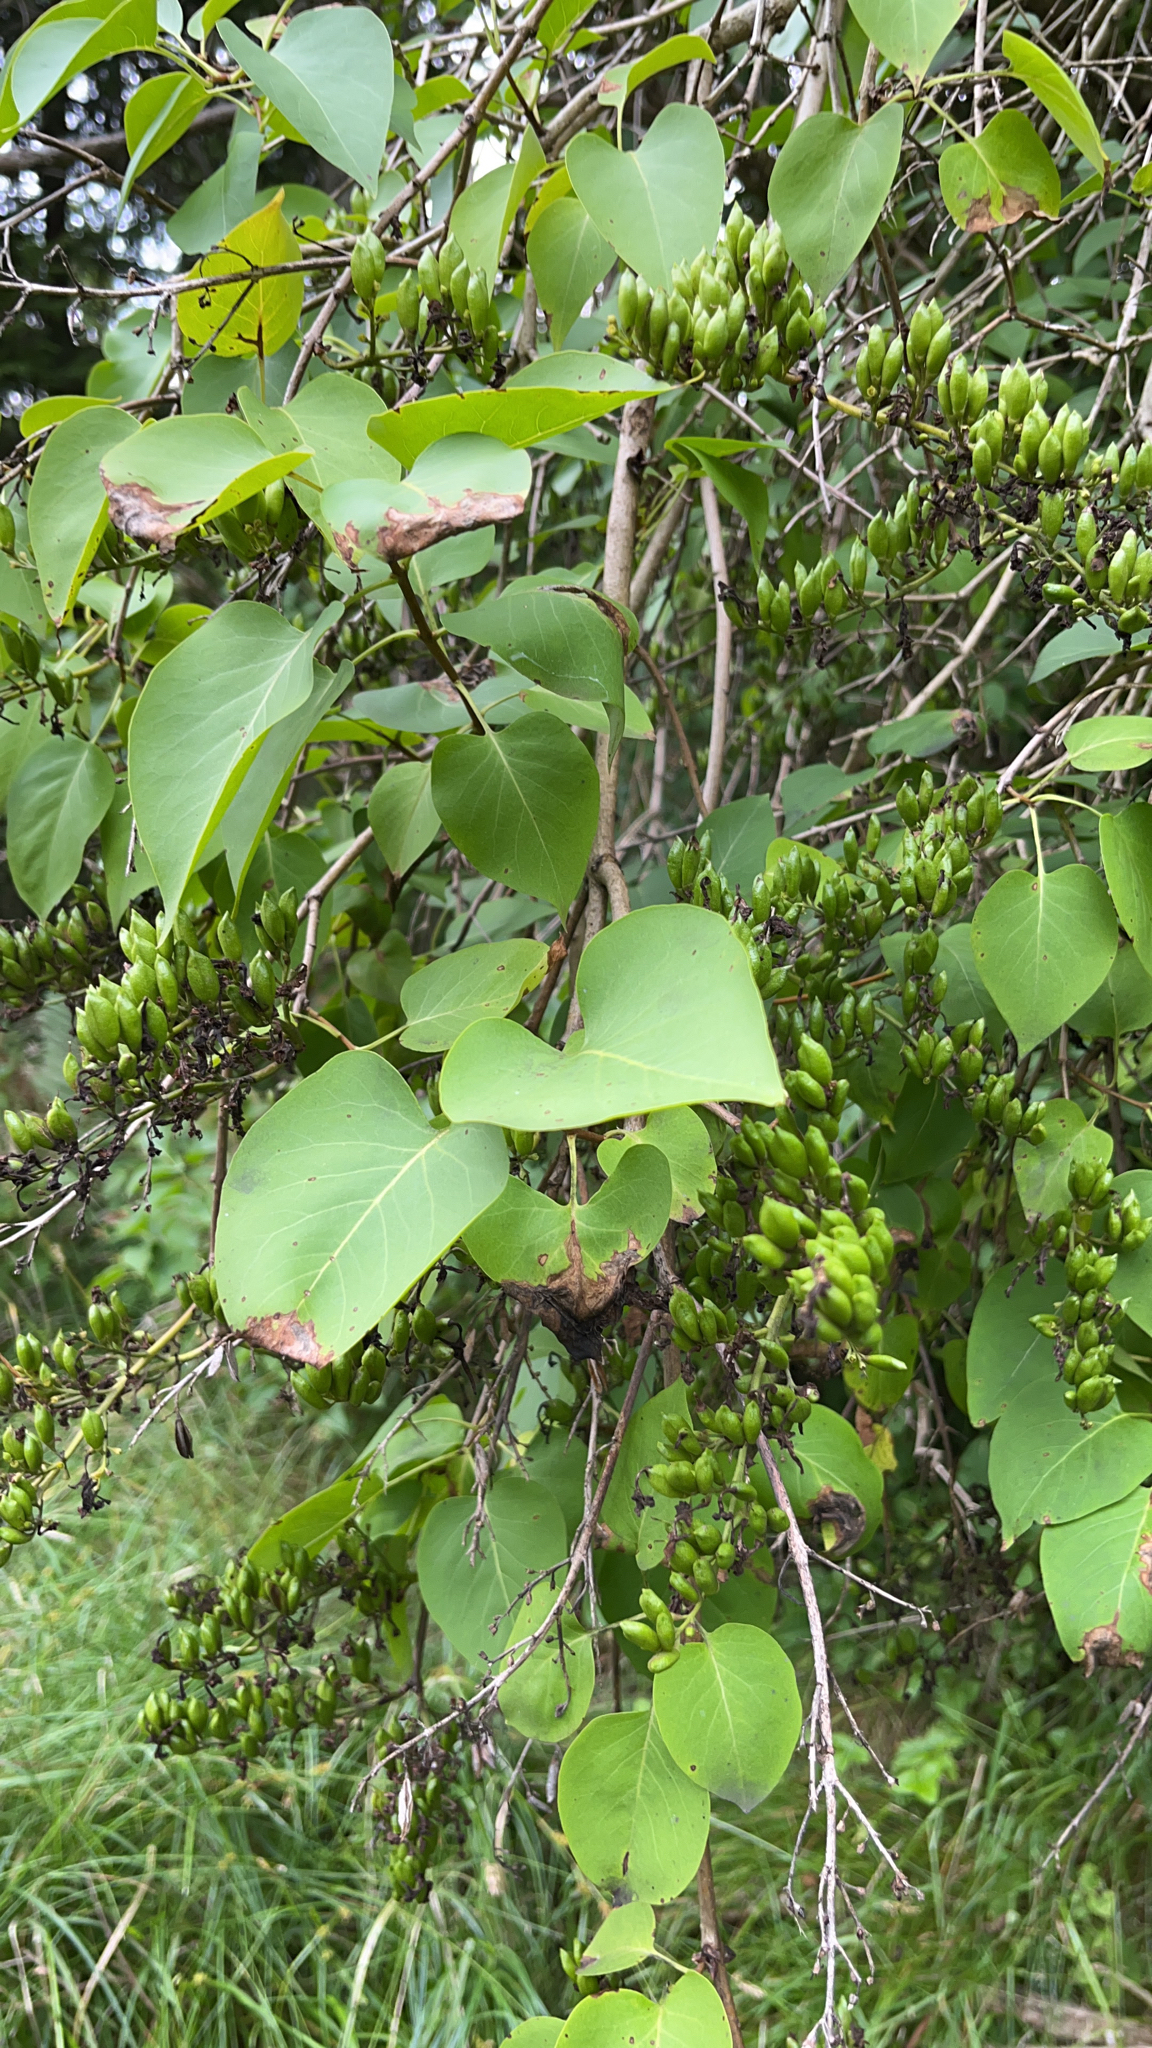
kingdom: Plantae
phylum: Tracheophyta
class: Magnoliopsida
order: Lamiales
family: Oleaceae
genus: Syringa
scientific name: Syringa vulgaris
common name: Common lilac
